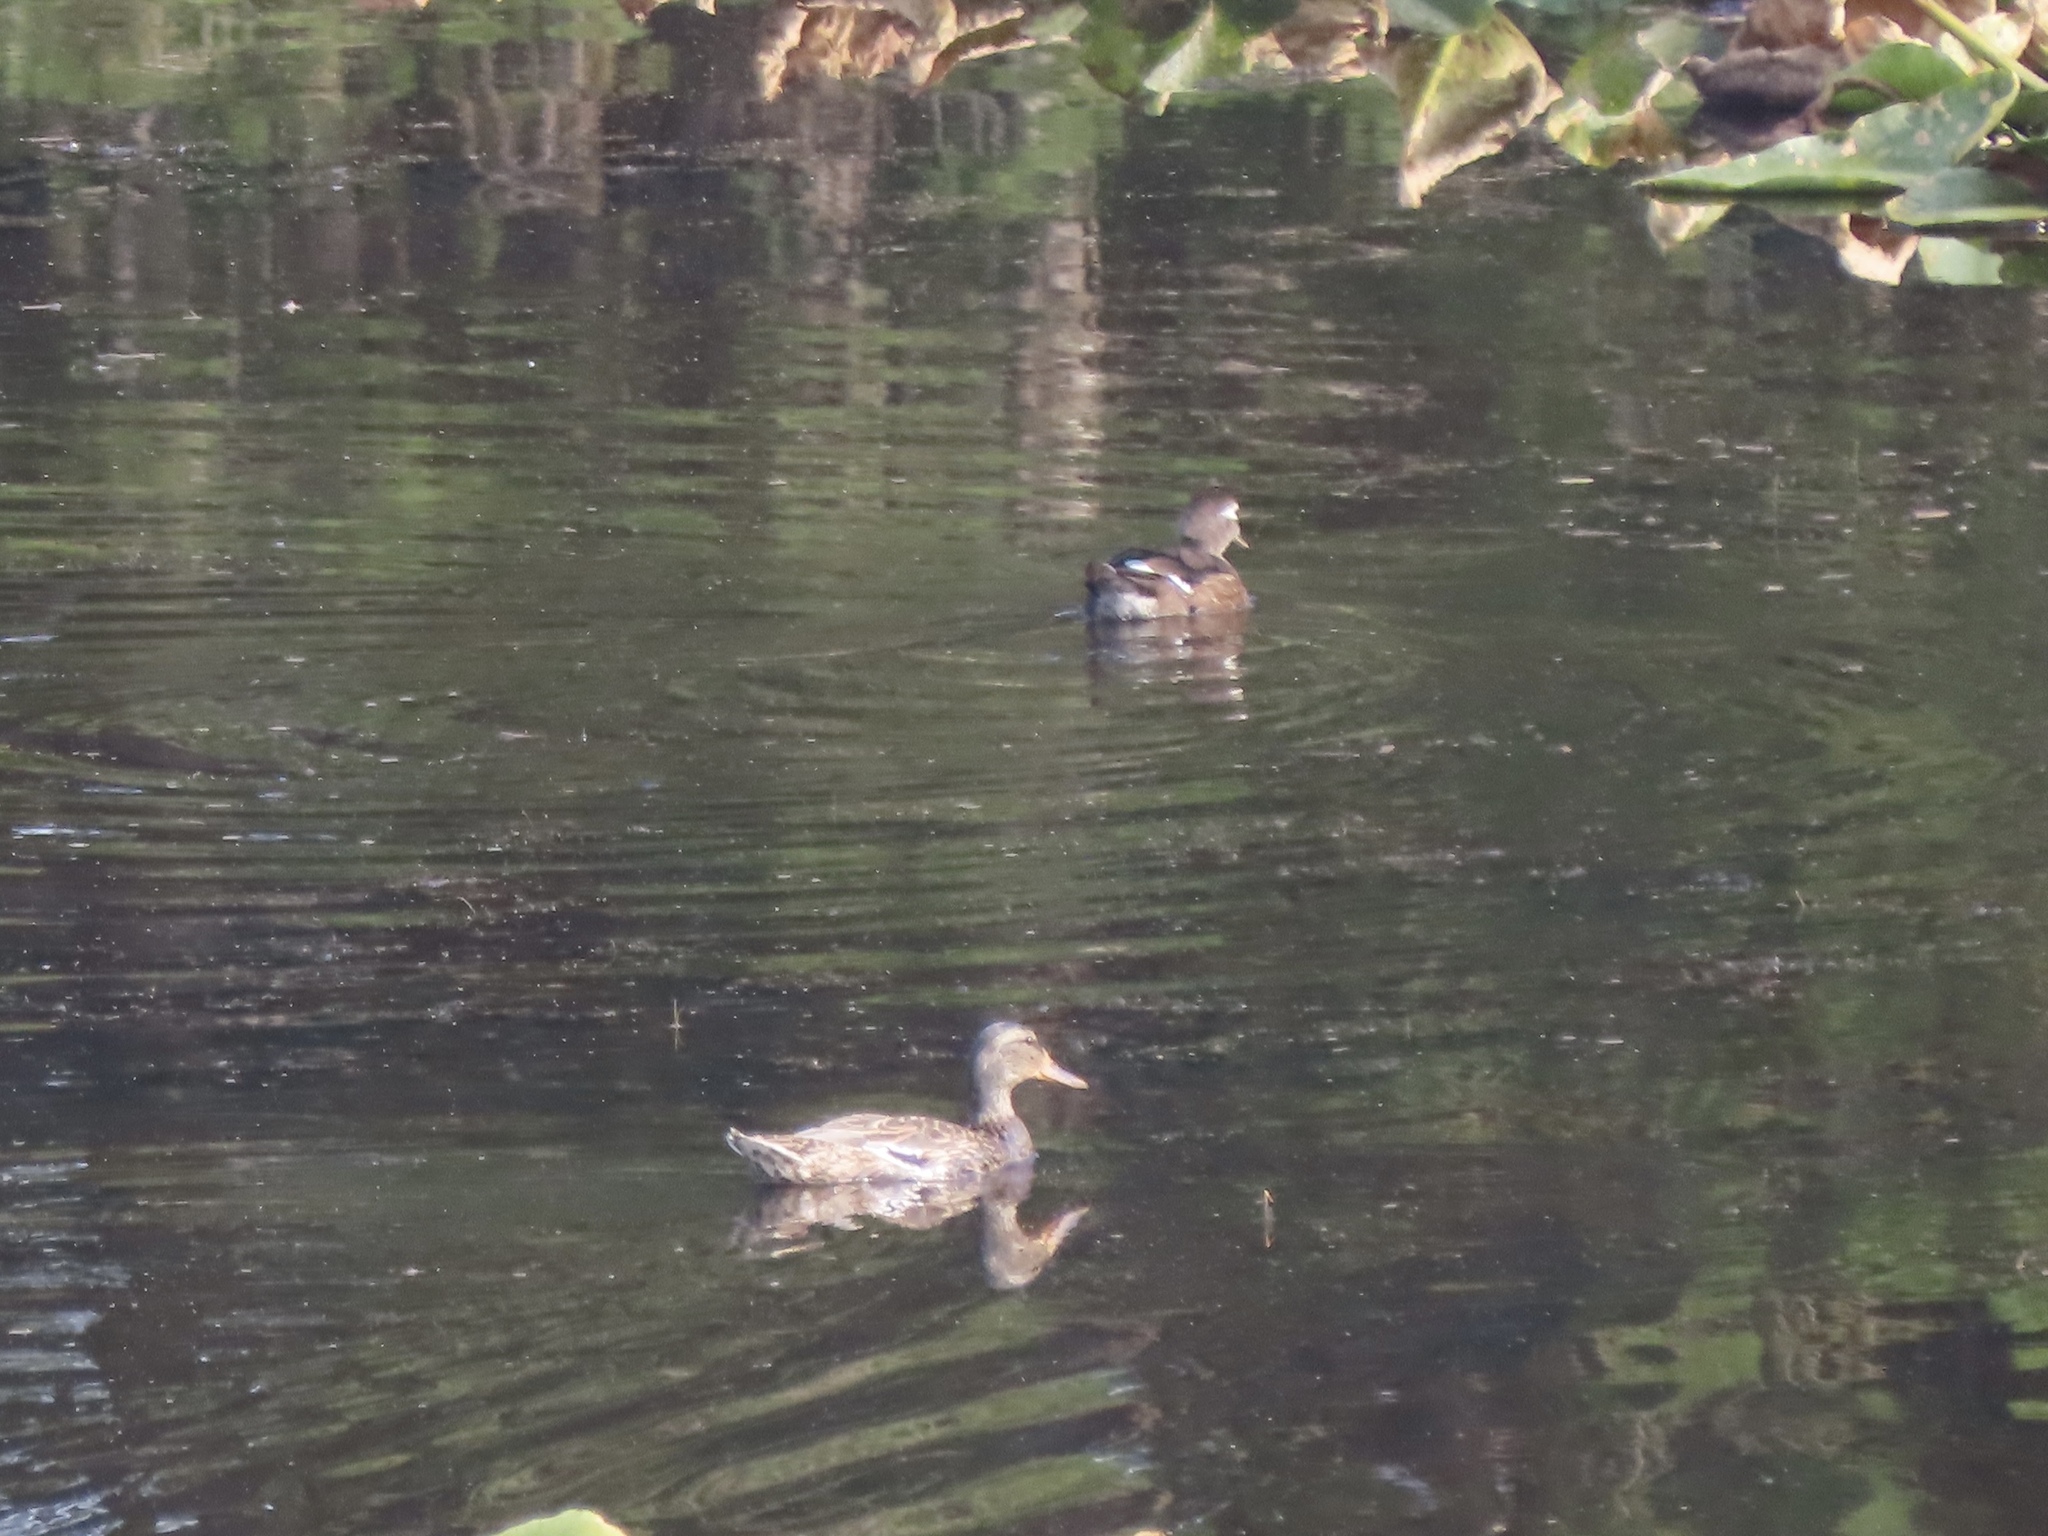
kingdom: Animalia
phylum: Chordata
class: Aves
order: Anseriformes
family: Anatidae
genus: Anas
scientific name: Anas platyrhynchos
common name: Mallard
